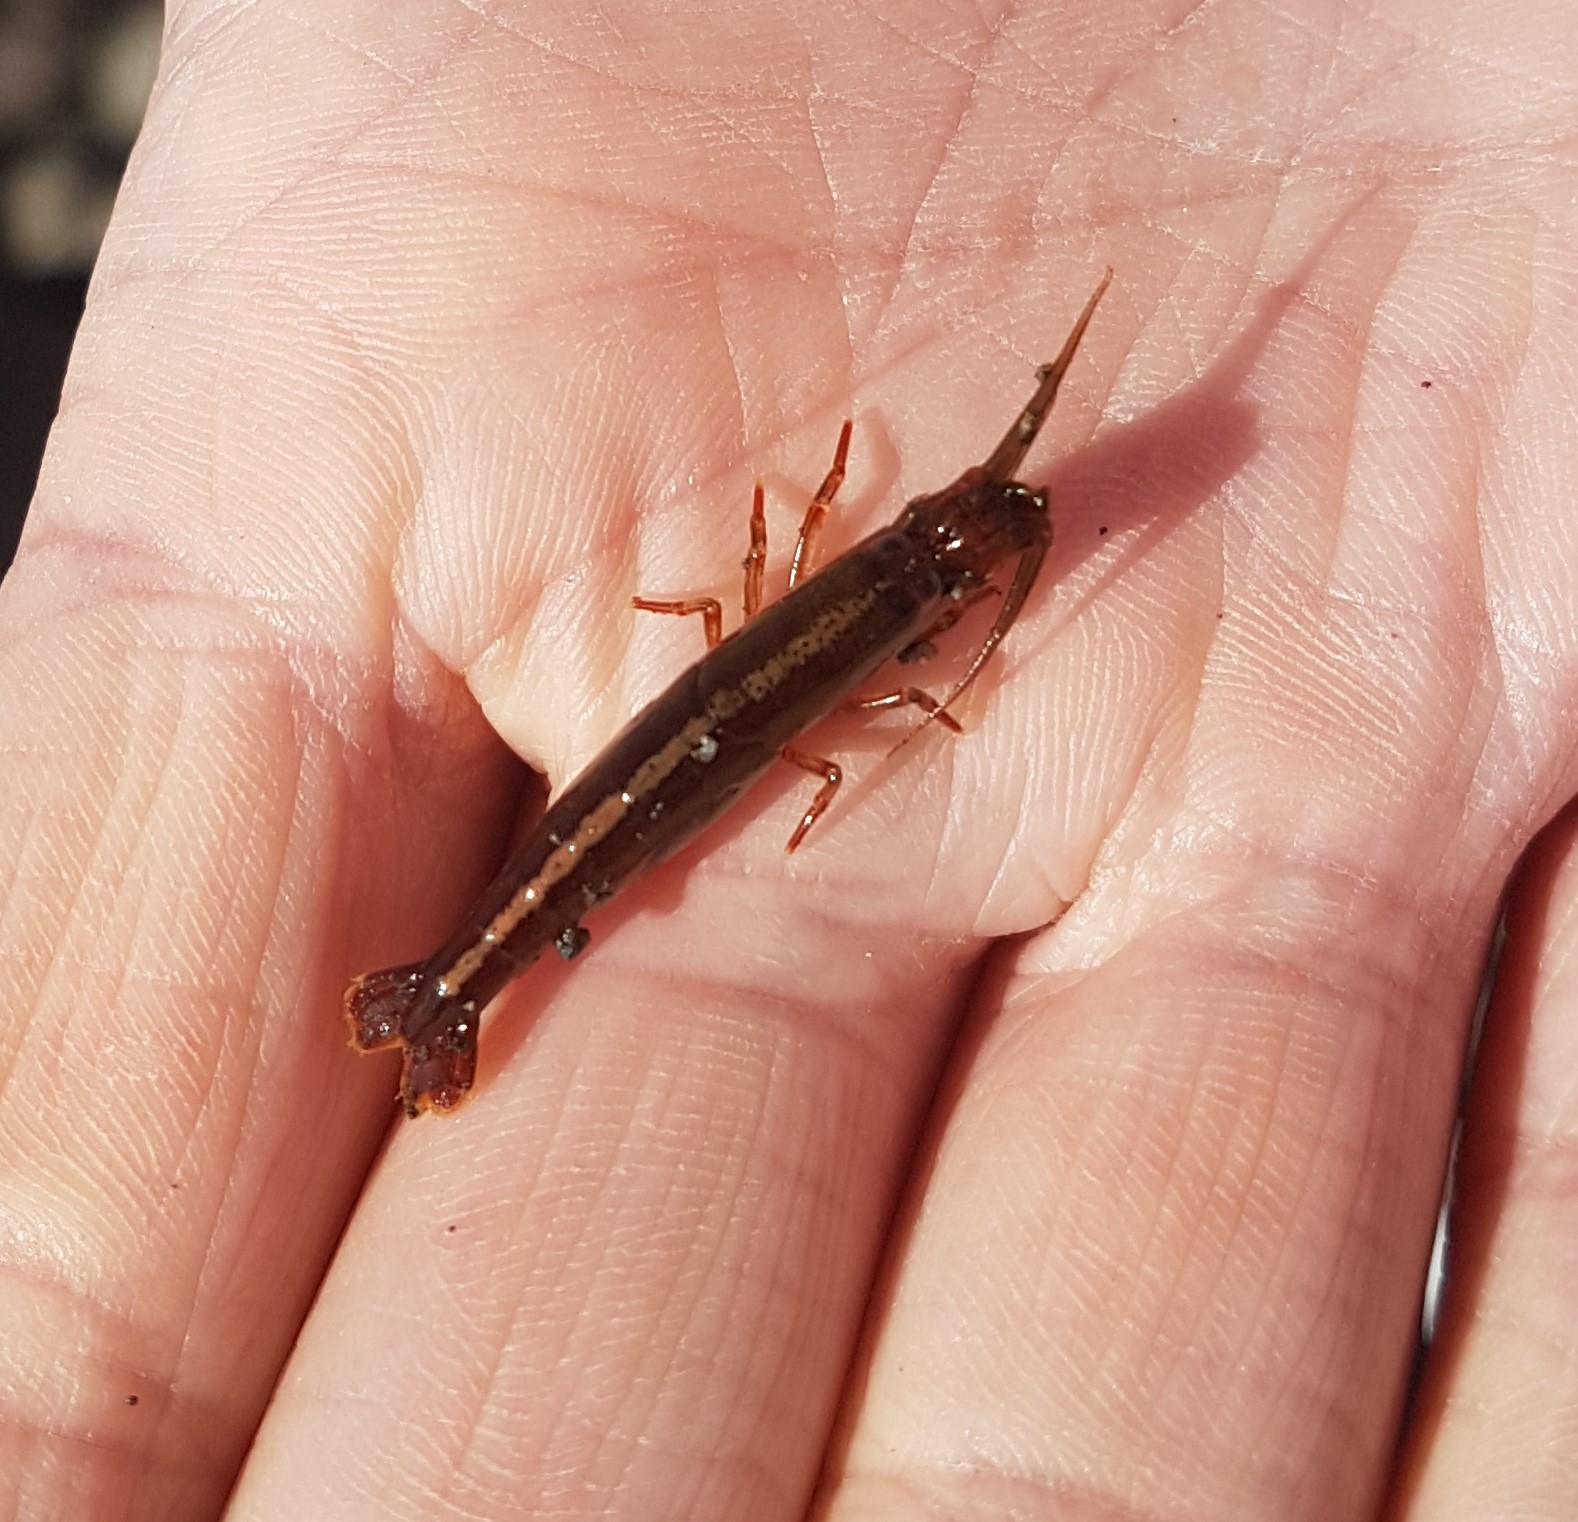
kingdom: Animalia
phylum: Arthropoda
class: Malacostraca
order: Decapoda
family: Alpheidae
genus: Betaeopsis
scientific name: Betaeopsis aequimanus
